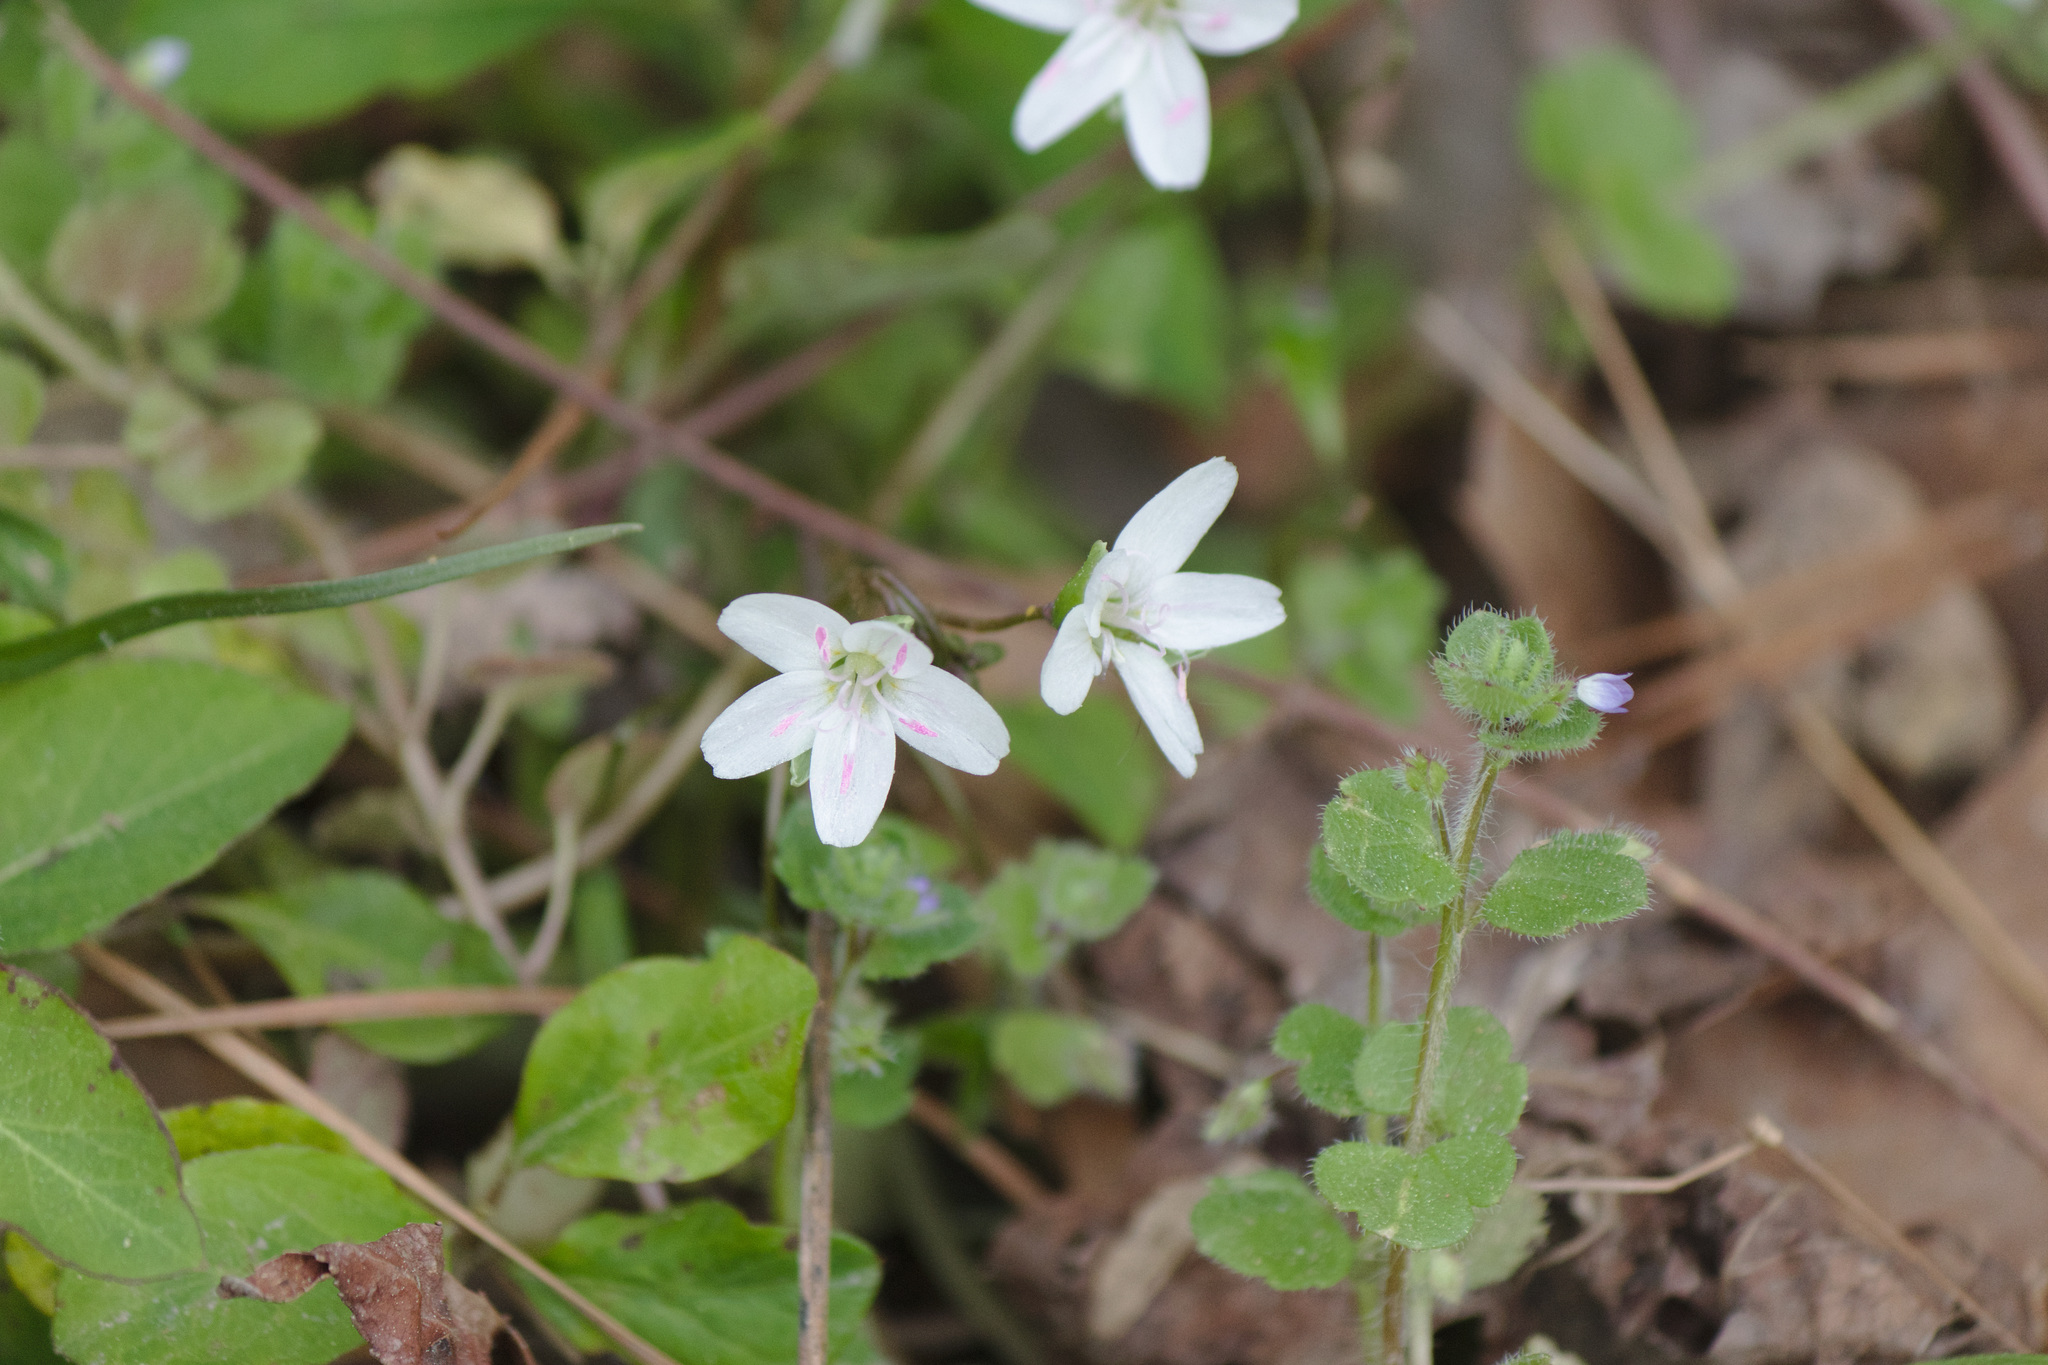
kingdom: Plantae
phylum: Tracheophyta
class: Magnoliopsida
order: Caryophyllales
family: Montiaceae
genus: Claytonia
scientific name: Claytonia virginica
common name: Virginia springbeauty
